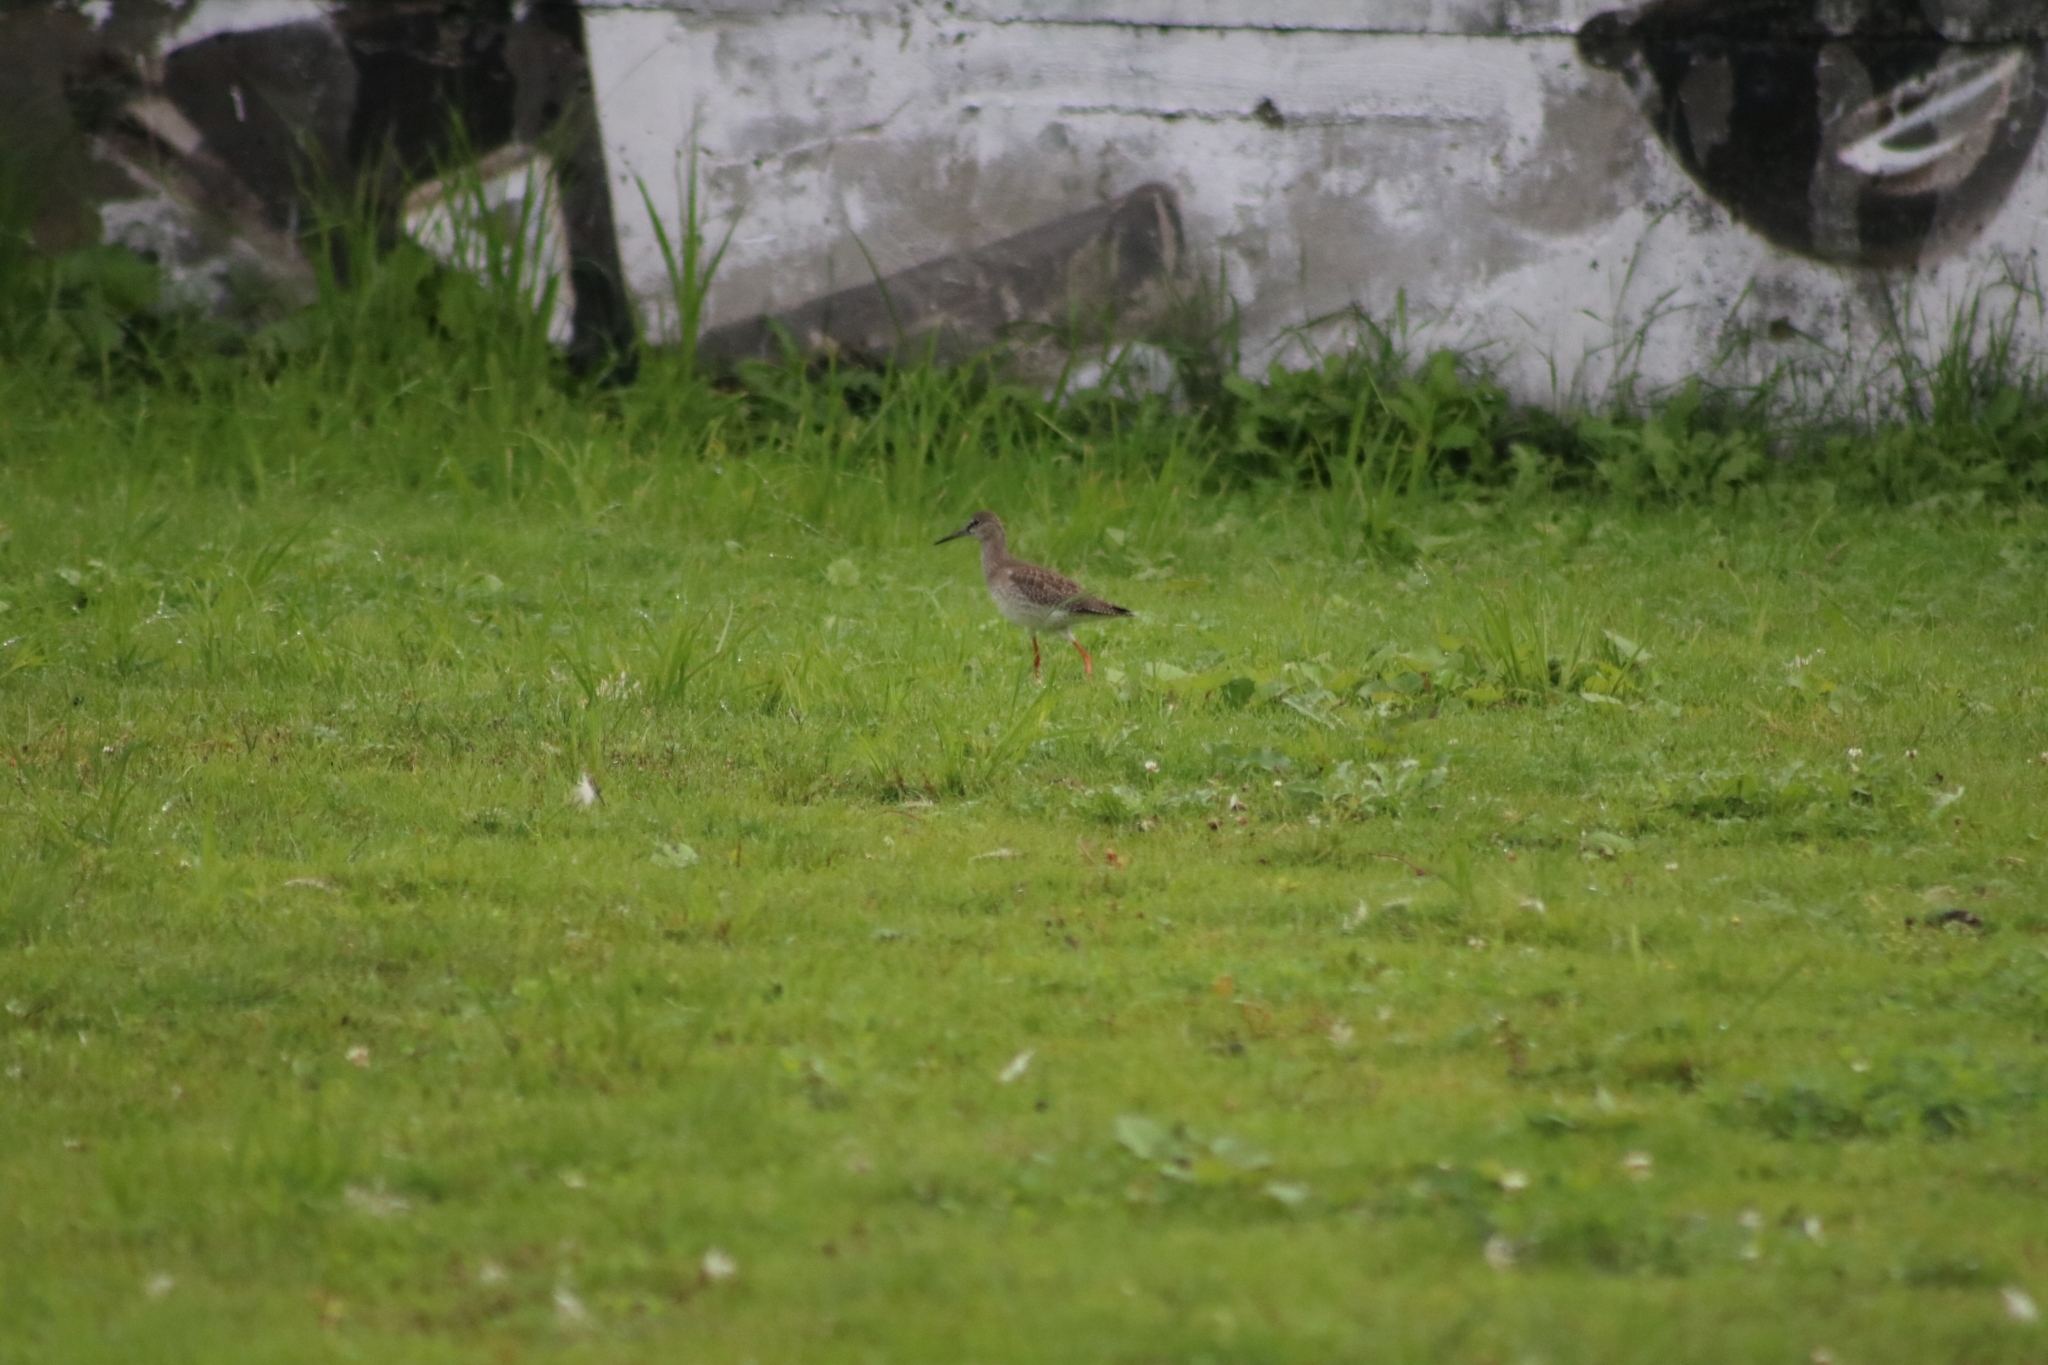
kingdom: Animalia
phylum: Chordata
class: Aves
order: Charadriiformes
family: Scolopacidae
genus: Tringa
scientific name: Tringa totanus
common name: Common redshank
